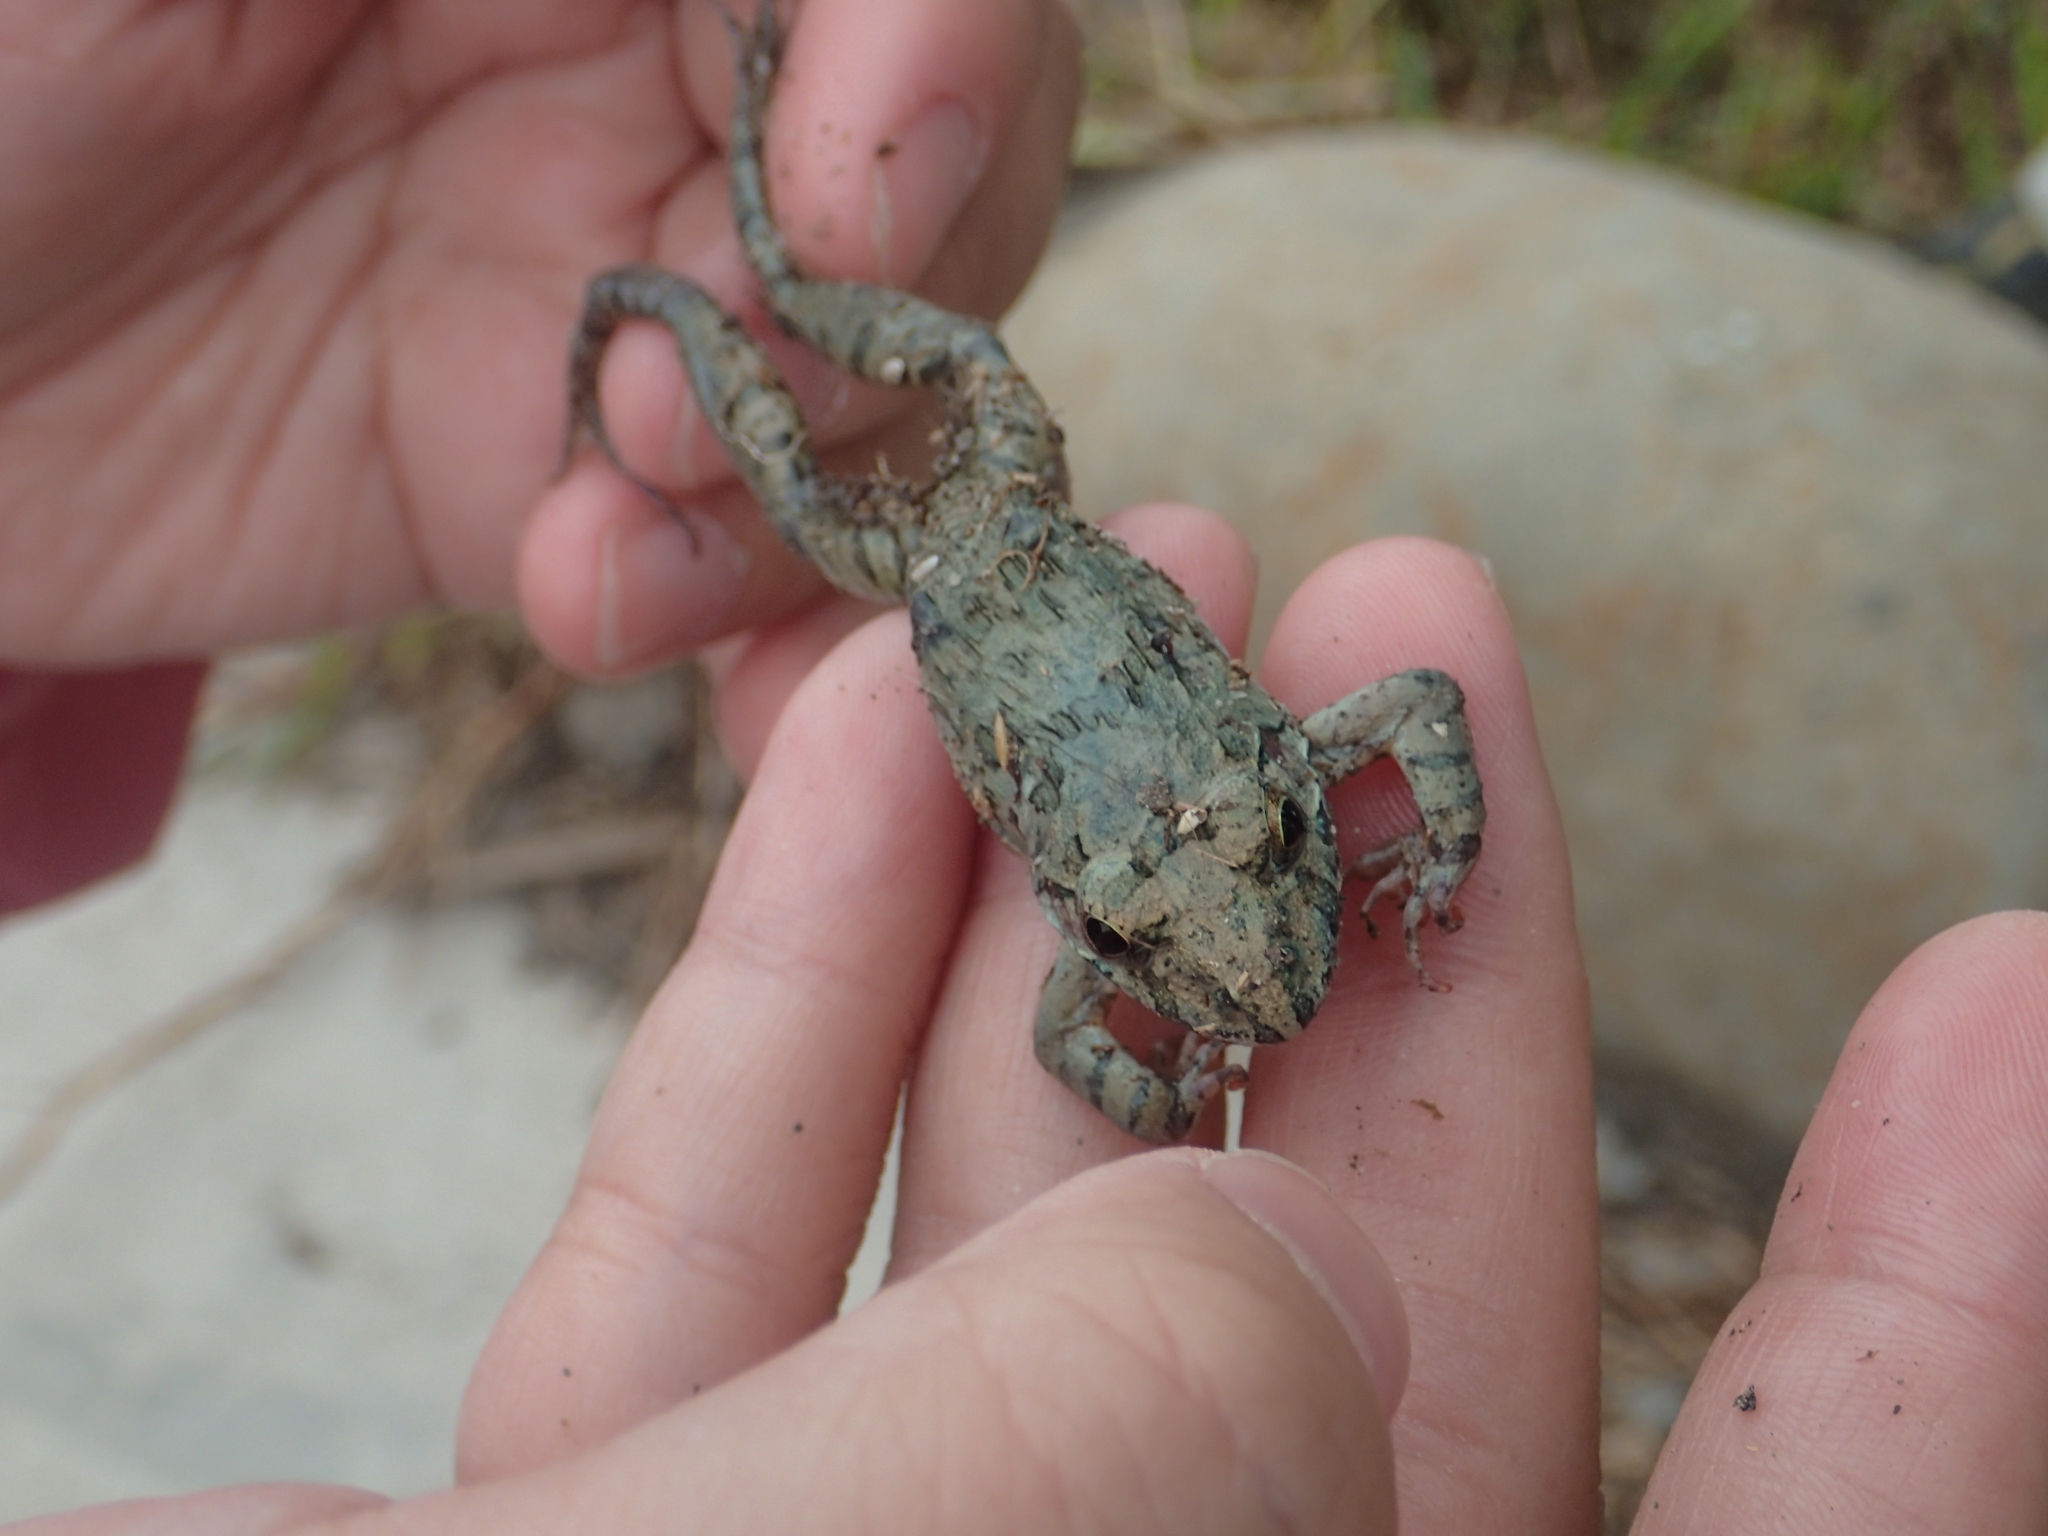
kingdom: Animalia
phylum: Chordata
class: Amphibia
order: Anura
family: Dicroglossidae
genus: Fejervarya
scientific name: Fejervarya limnocharis
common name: Asian grass frog/common pond frog/field frog/grass frog/indian rice frog
